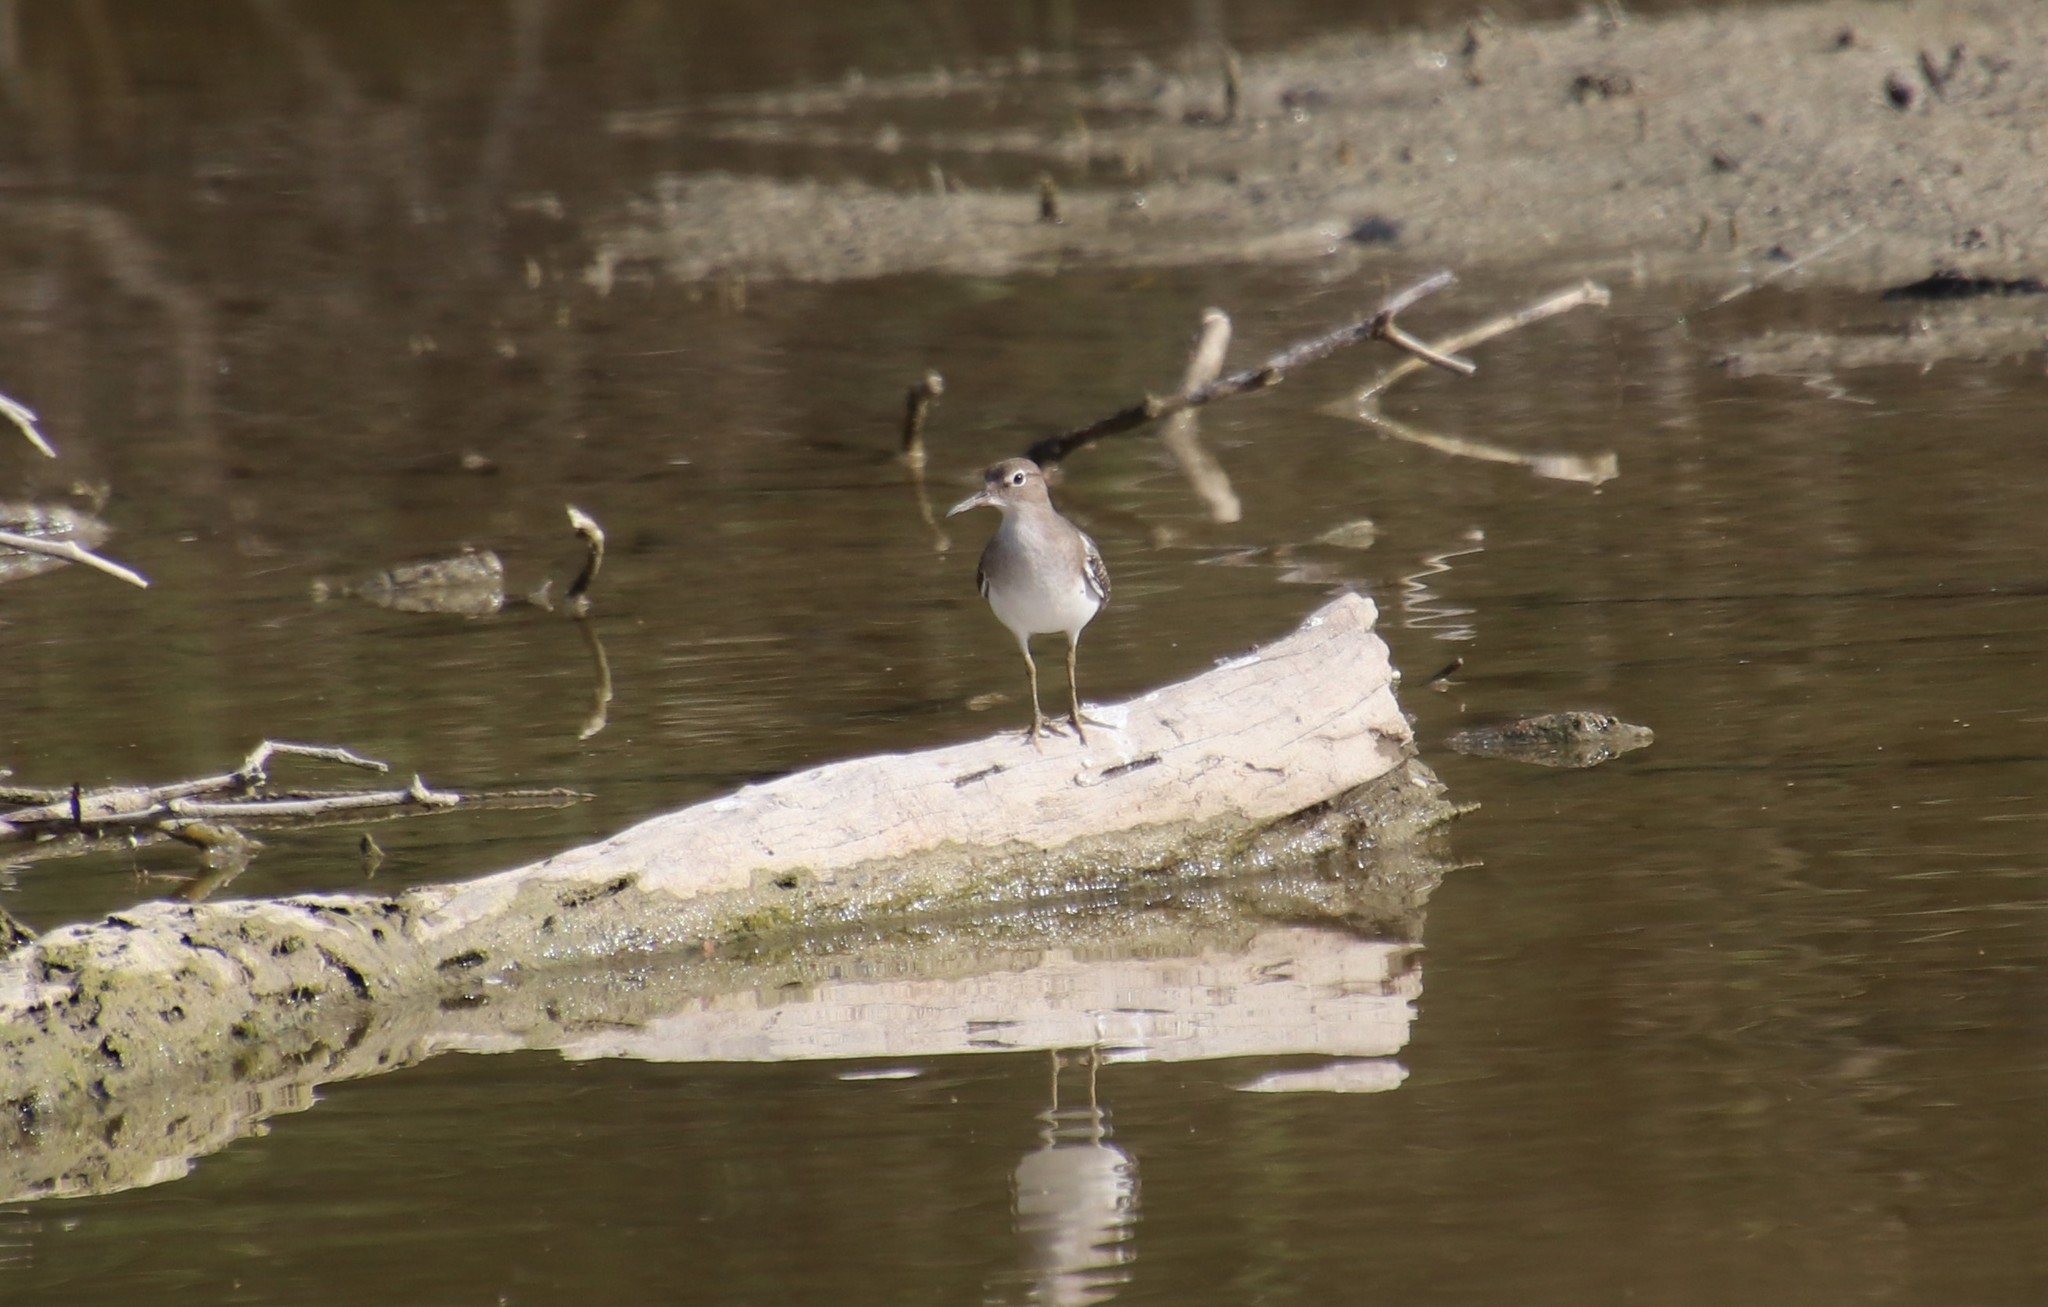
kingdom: Animalia
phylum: Chordata
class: Aves
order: Charadriiformes
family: Scolopacidae
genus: Actitis
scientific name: Actitis macularius
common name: Spotted sandpiper
